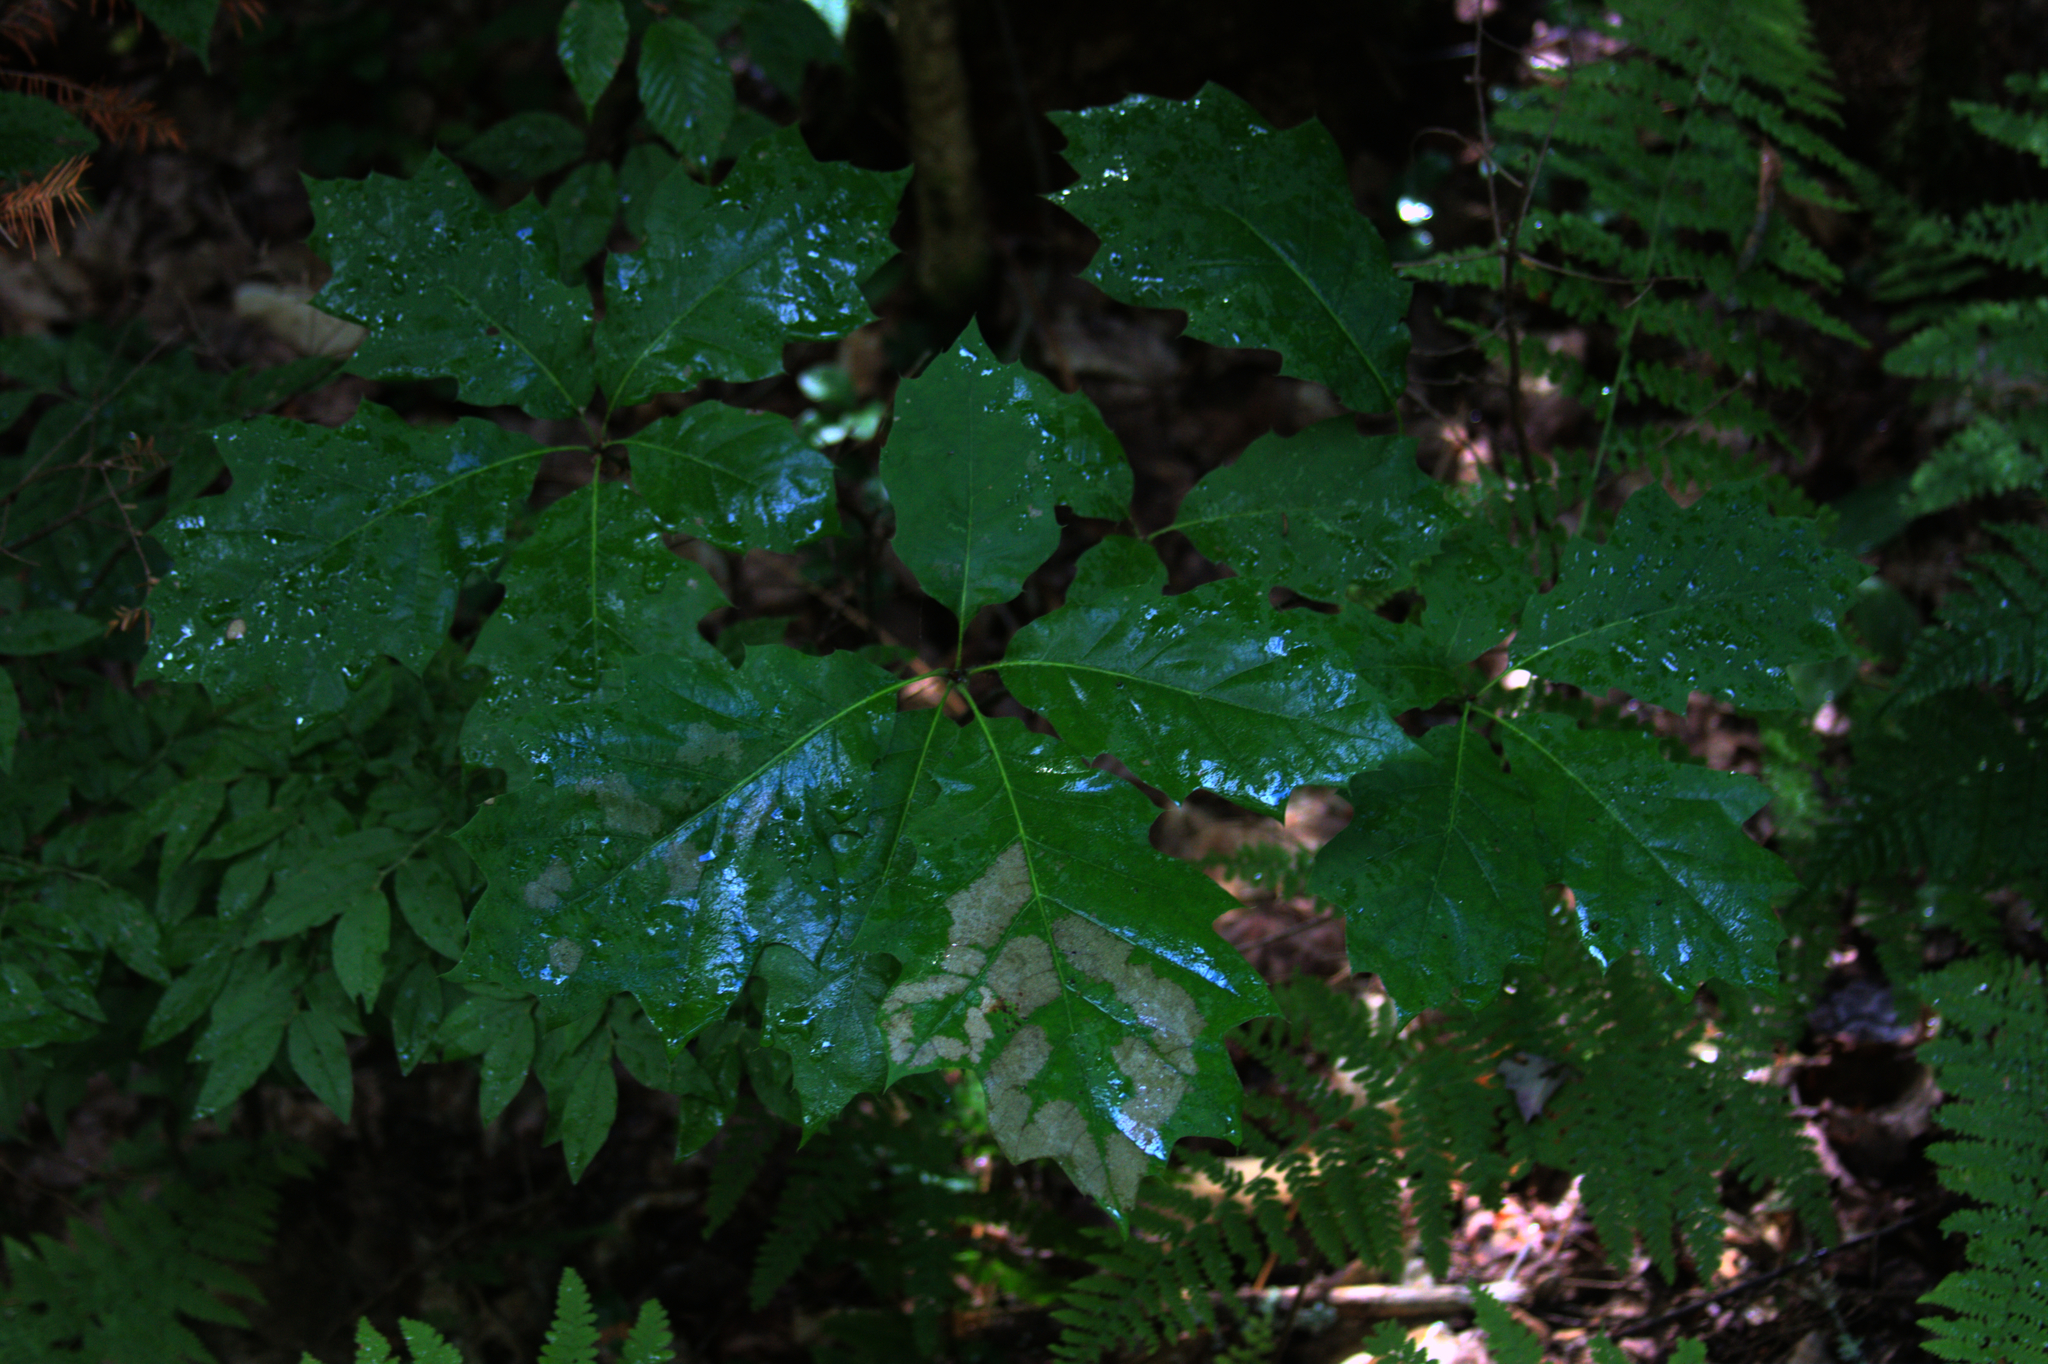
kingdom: Plantae
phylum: Tracheophyta
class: Magnoliopsida
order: Fagales
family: Fagaceae
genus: Quercus
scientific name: Quercus rubra
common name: Red oak
